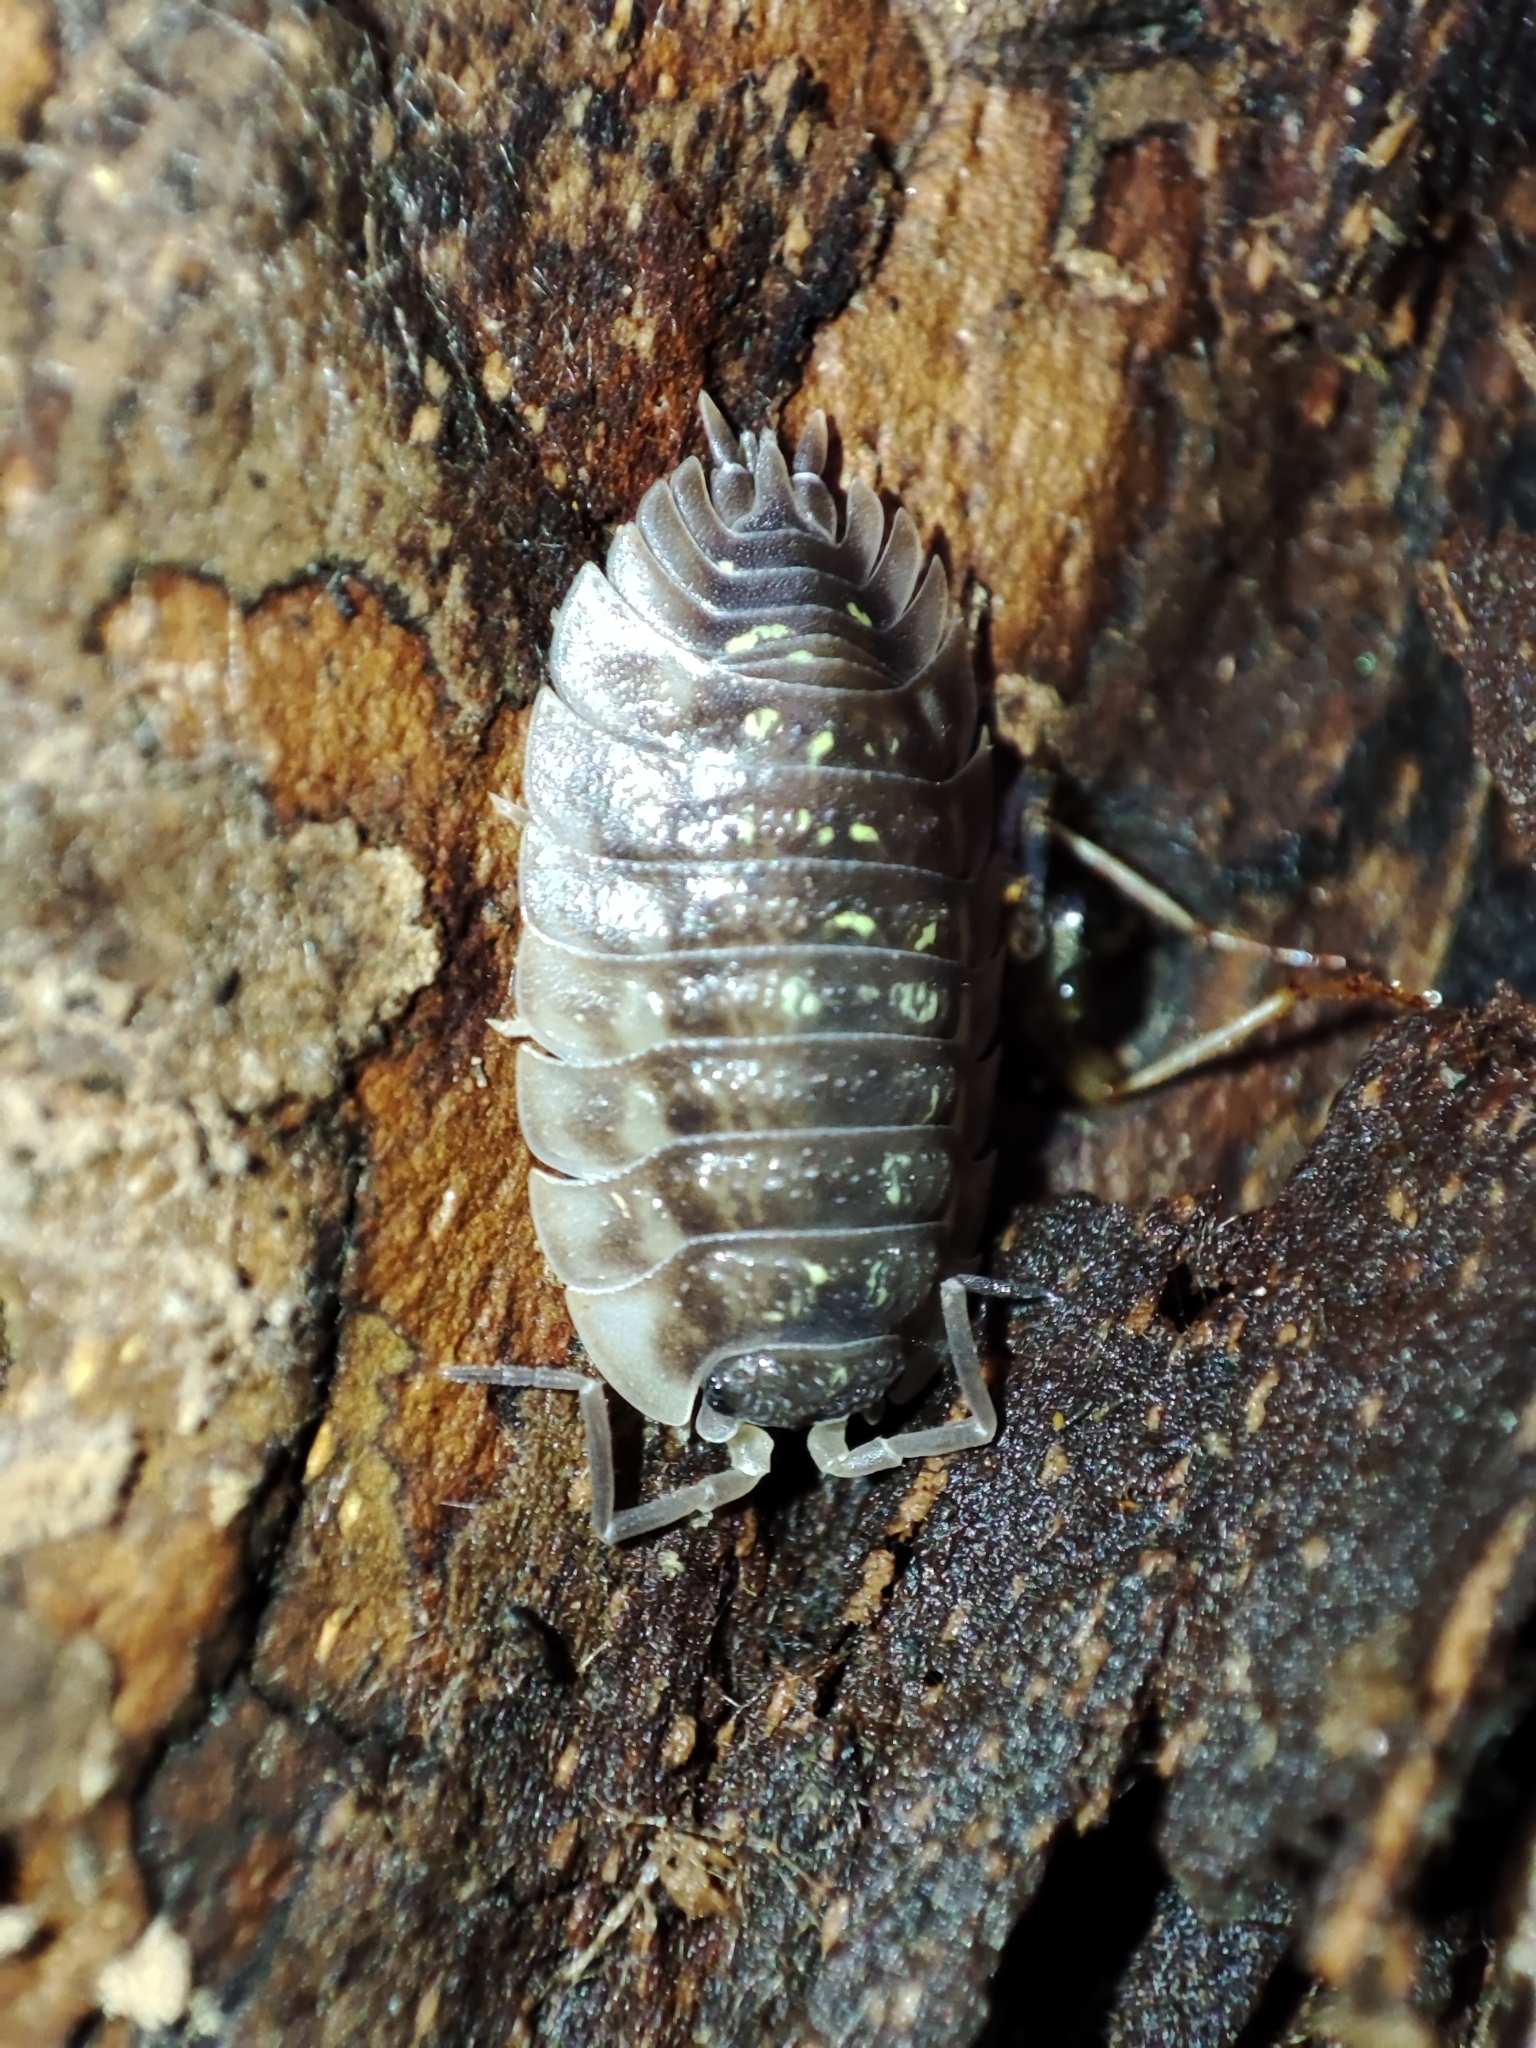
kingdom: Animalia
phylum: Arthropoda
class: Malacostraca
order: Isopoda
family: Oniscidae
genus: Oniscus
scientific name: Oniscus asellus
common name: Common shiny woodlouse
